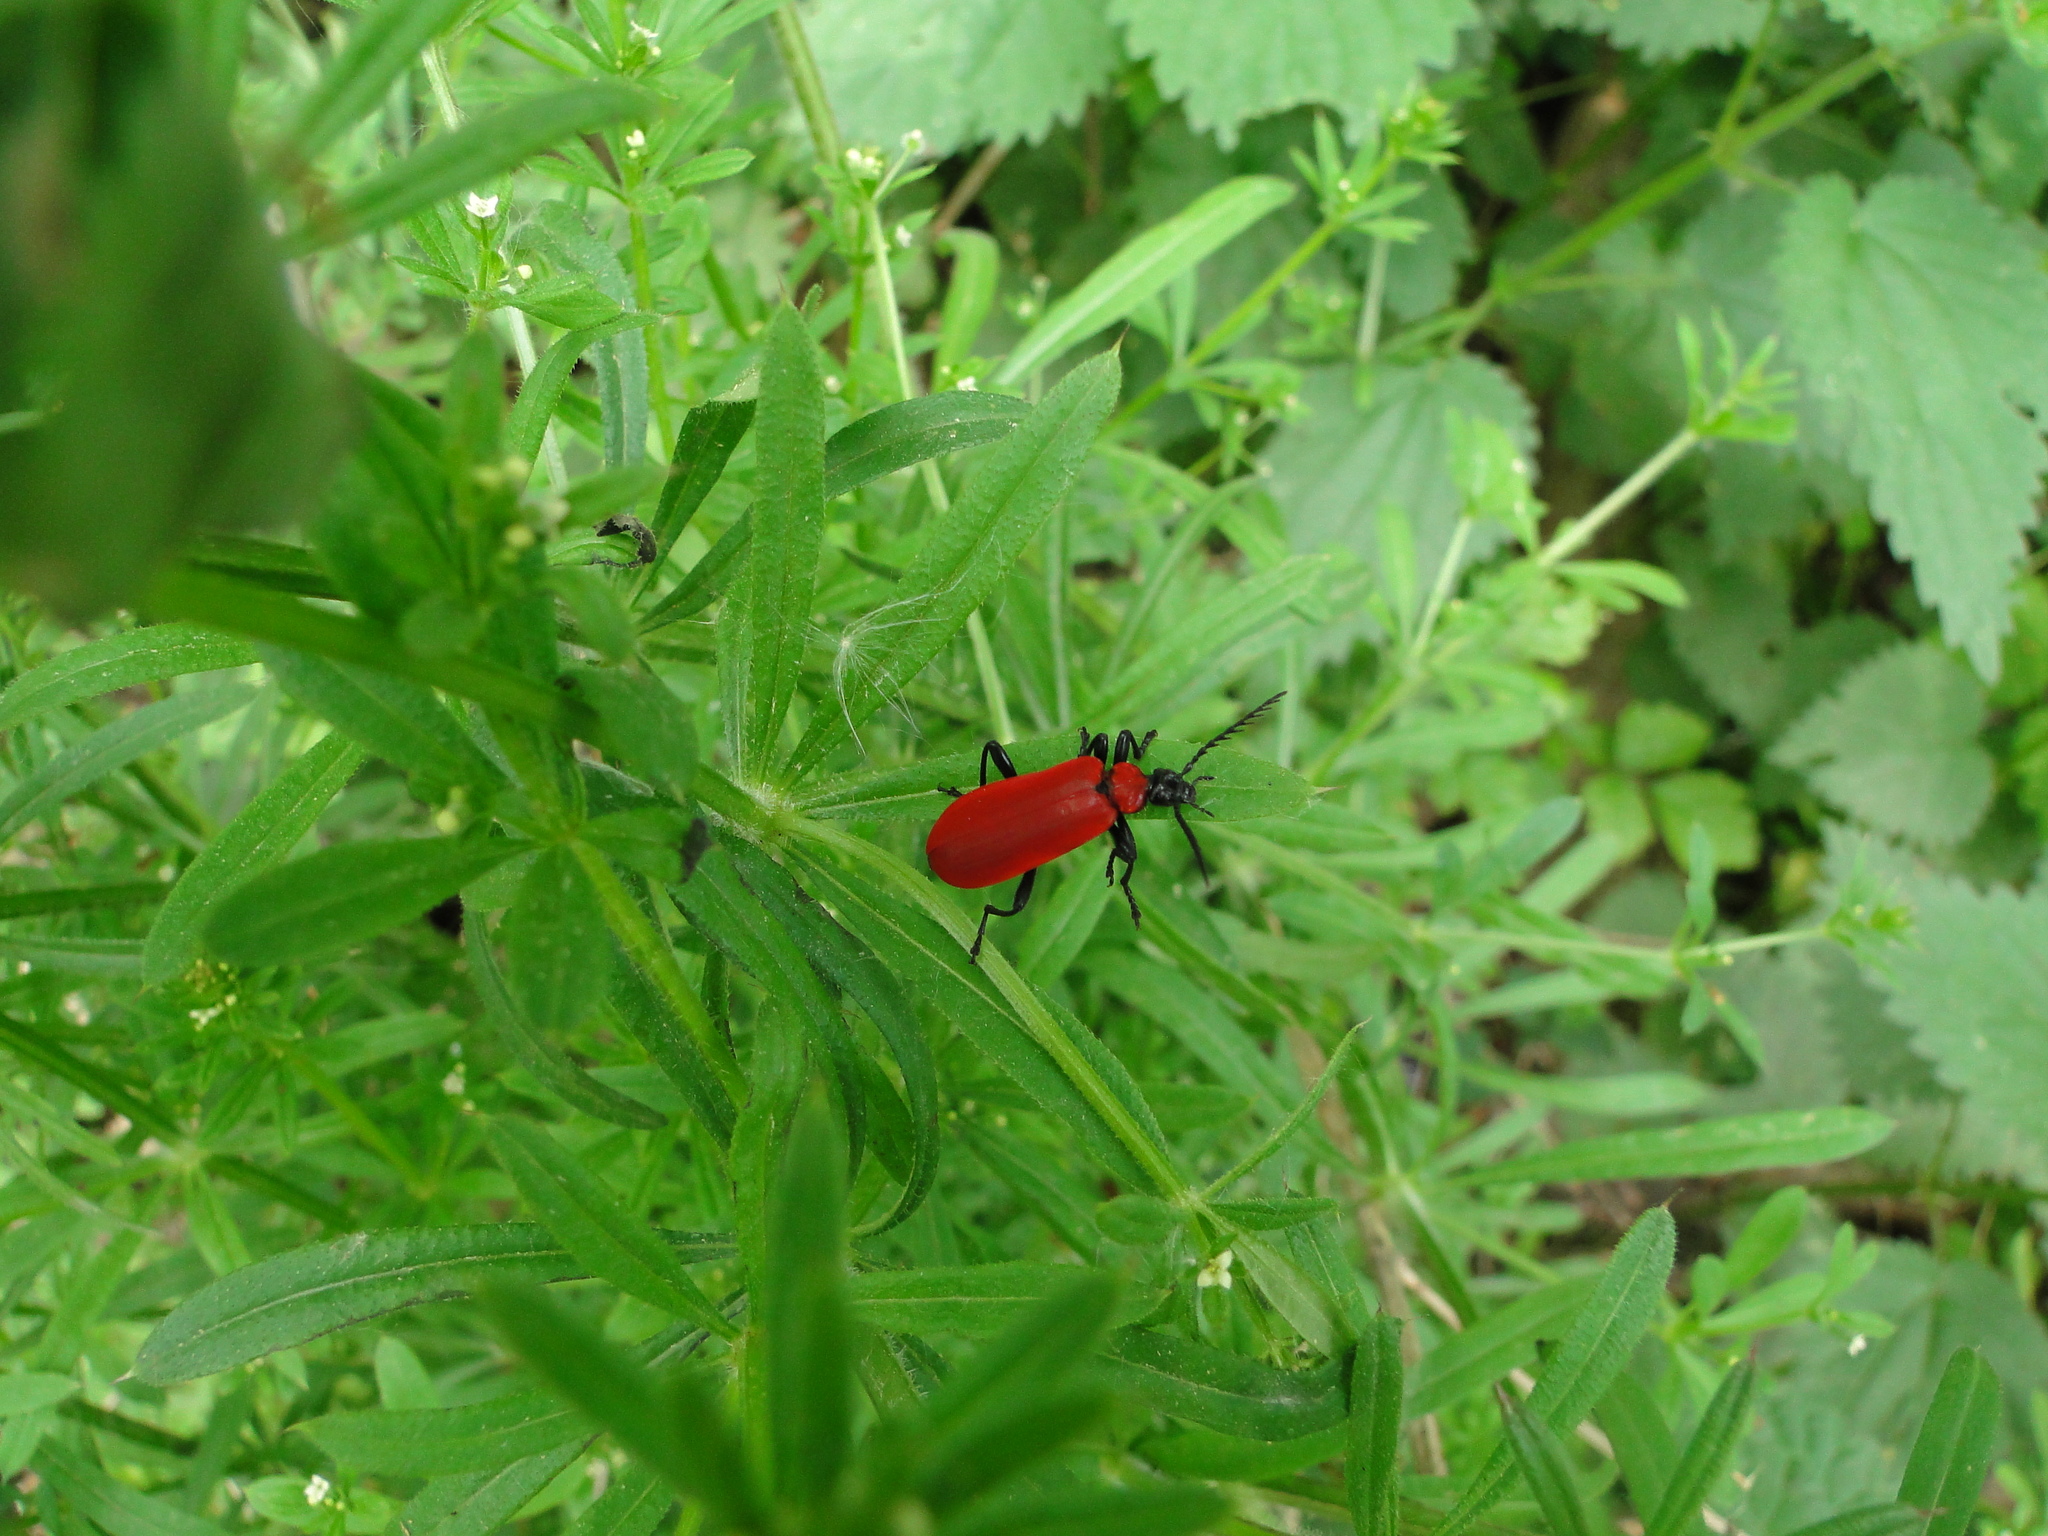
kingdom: Animalia
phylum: Arthropoda
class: Insecta
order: Coleoptera
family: Pyrochroidae
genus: Pyrochroa
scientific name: Pyrochroa coccinea
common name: Black-headed cardinal beetle
